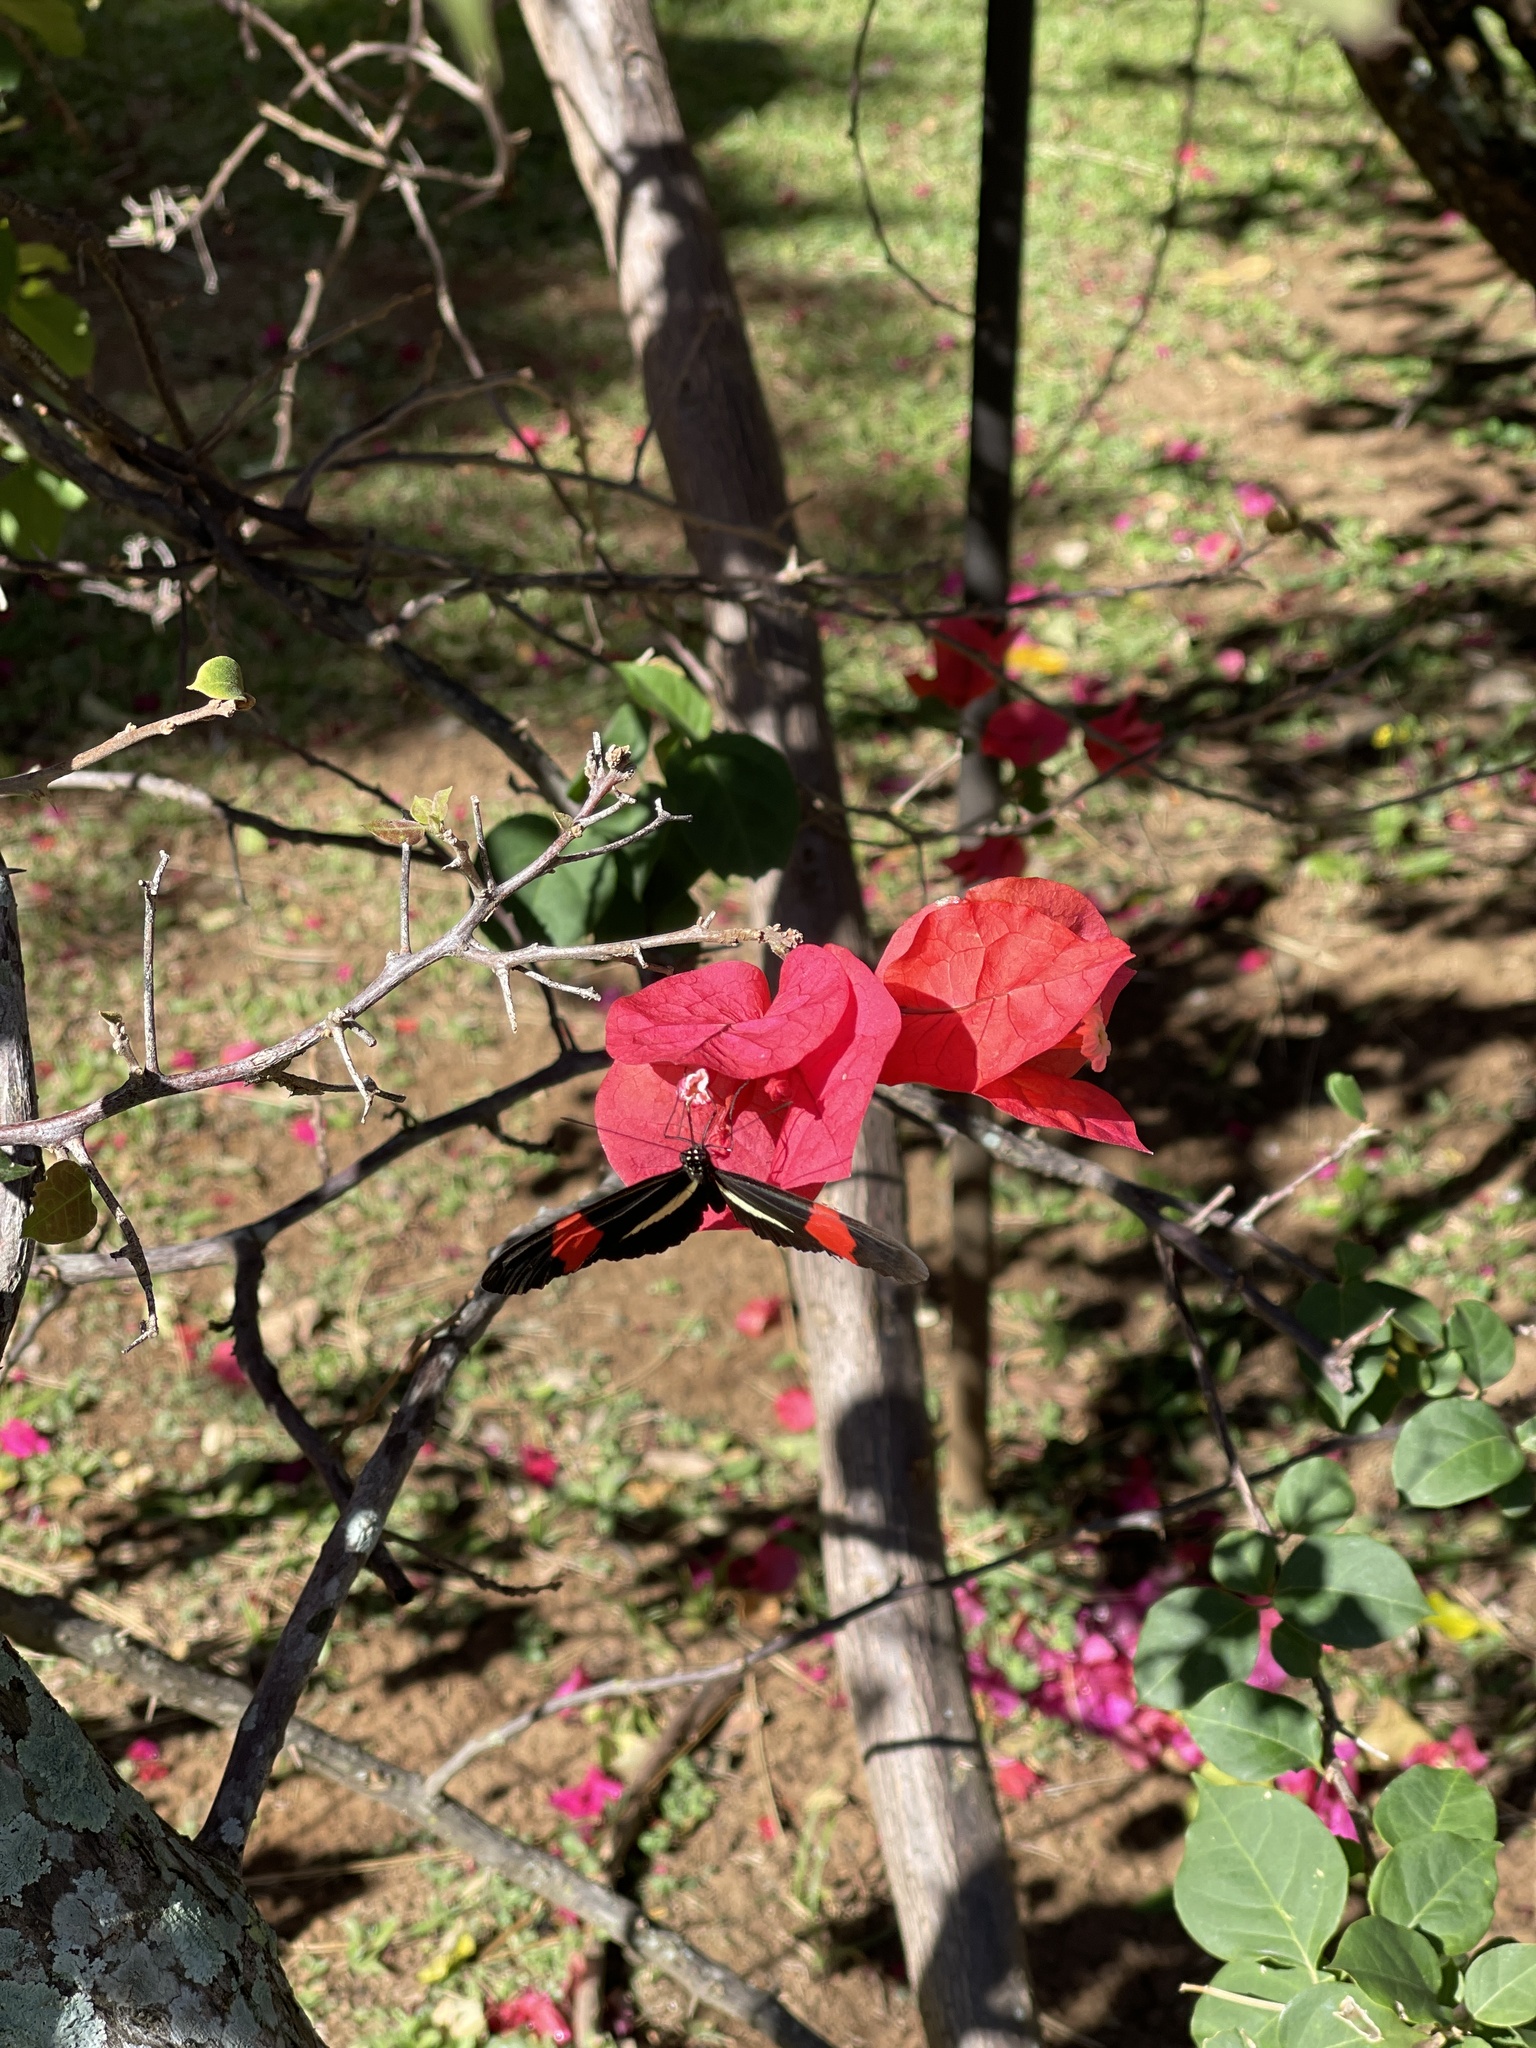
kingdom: Animalia
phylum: Arthropoda
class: Insecta
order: Lepidoptera
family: Nymphalidae
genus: Tirumala
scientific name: Tirumala petiverana
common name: Blue monarch
